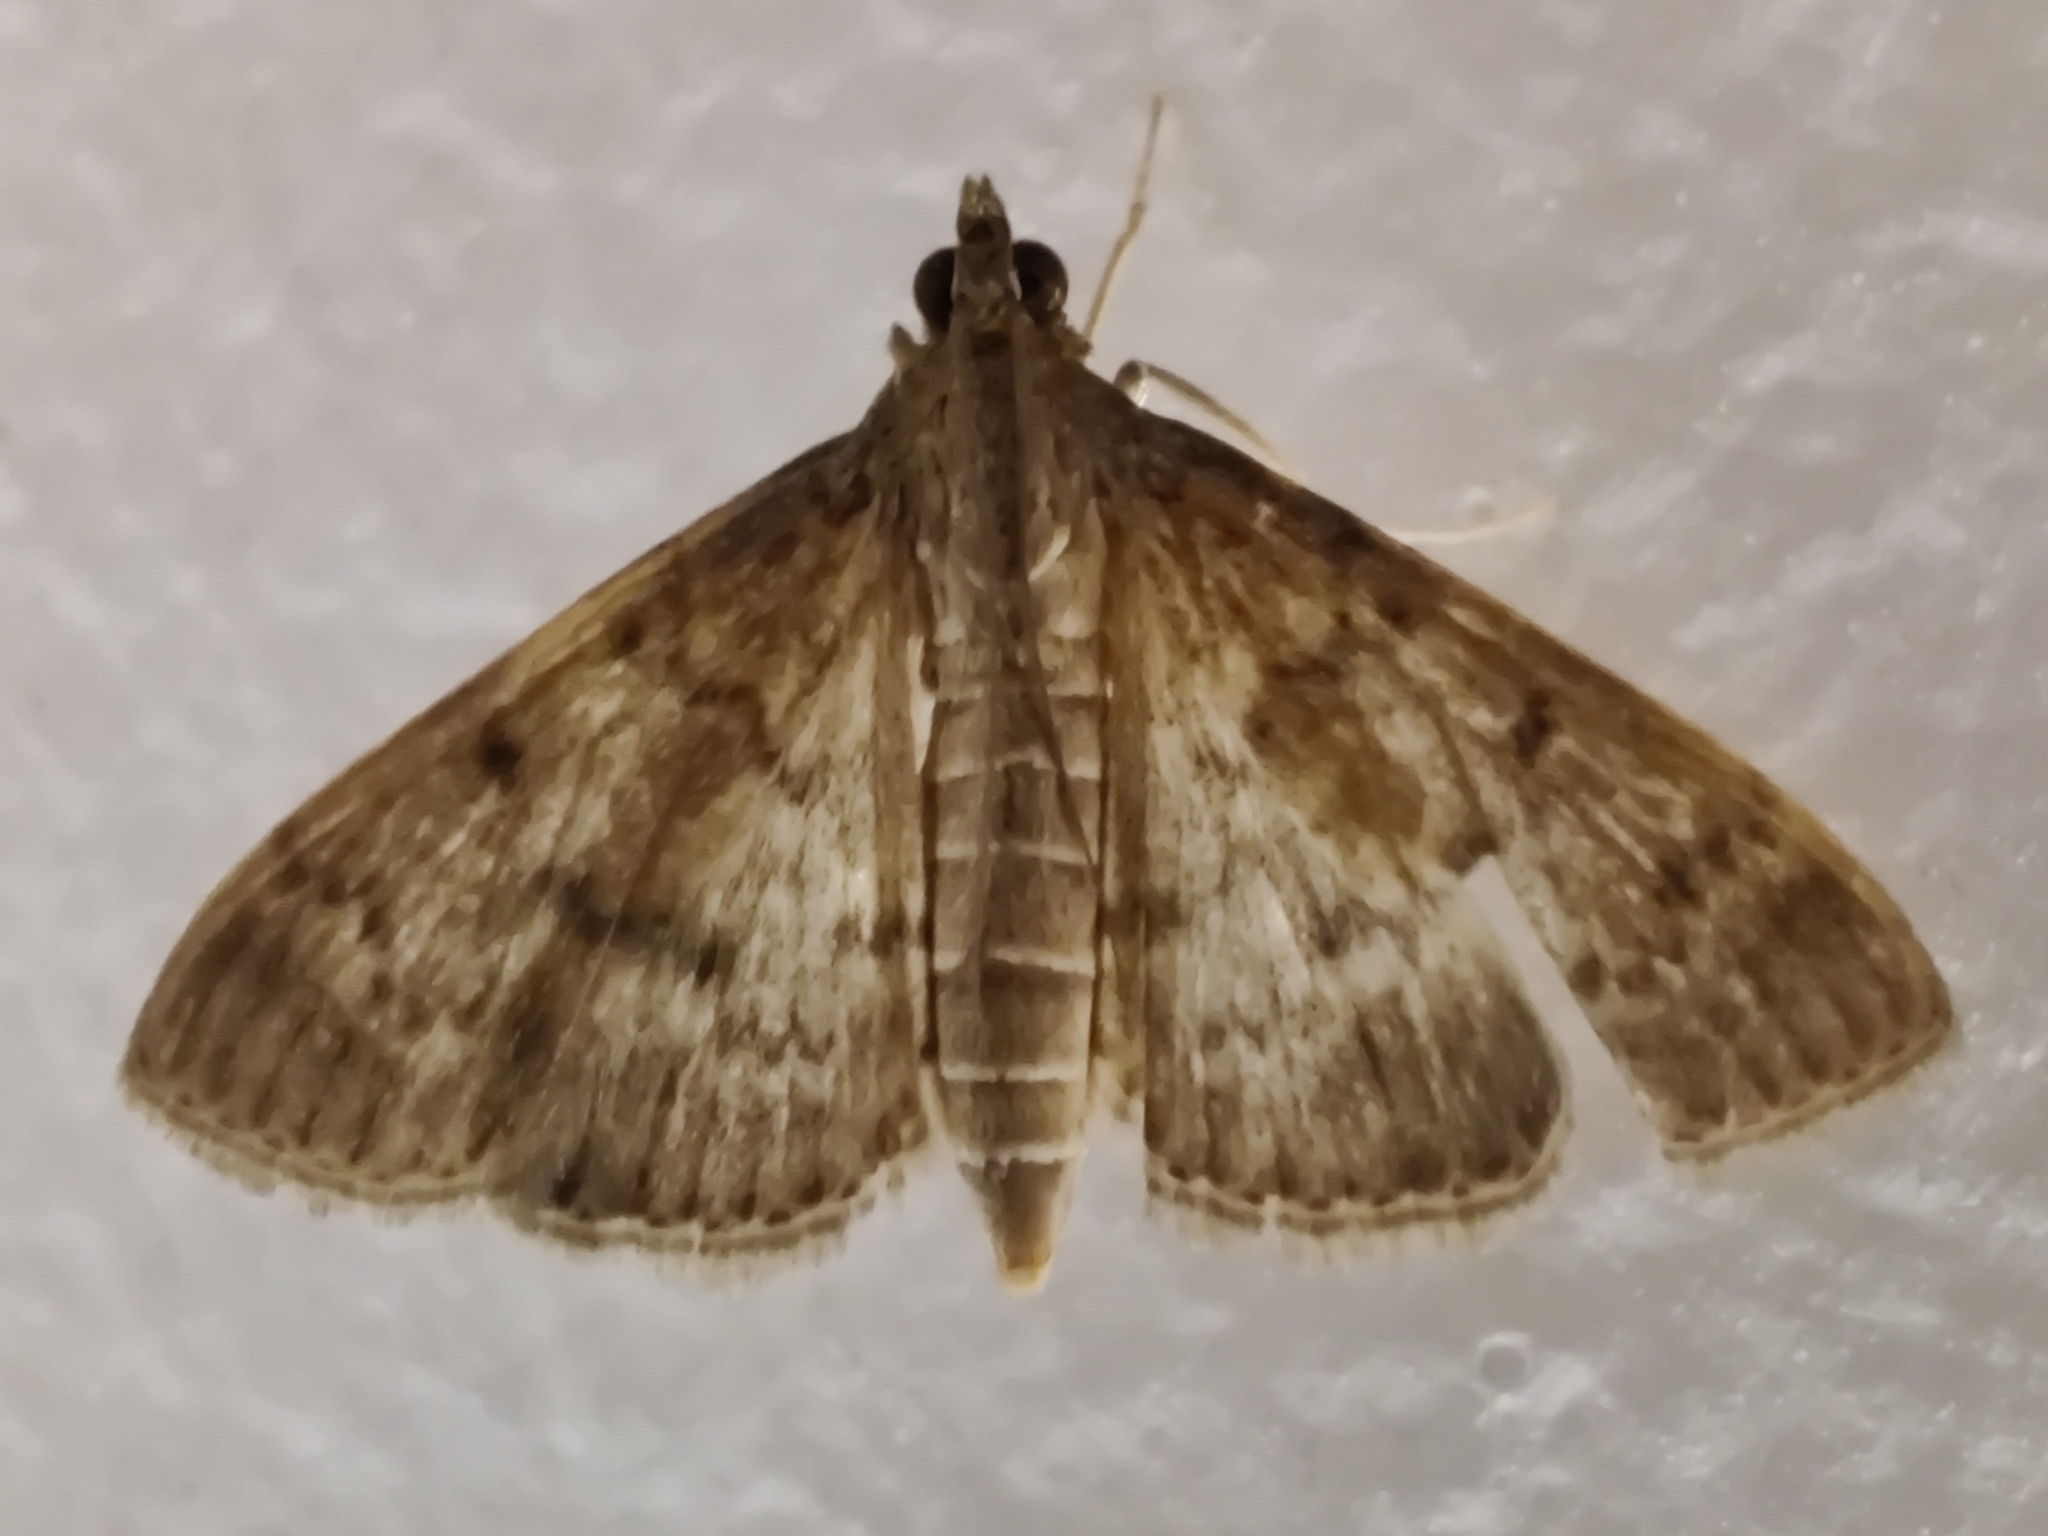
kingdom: Animalia
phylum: Arthropoda
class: Insecta
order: Lepidoptera
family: Crambidae
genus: Herpetogramma
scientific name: Herpetogramma licarsisalis
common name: Grass webworm
